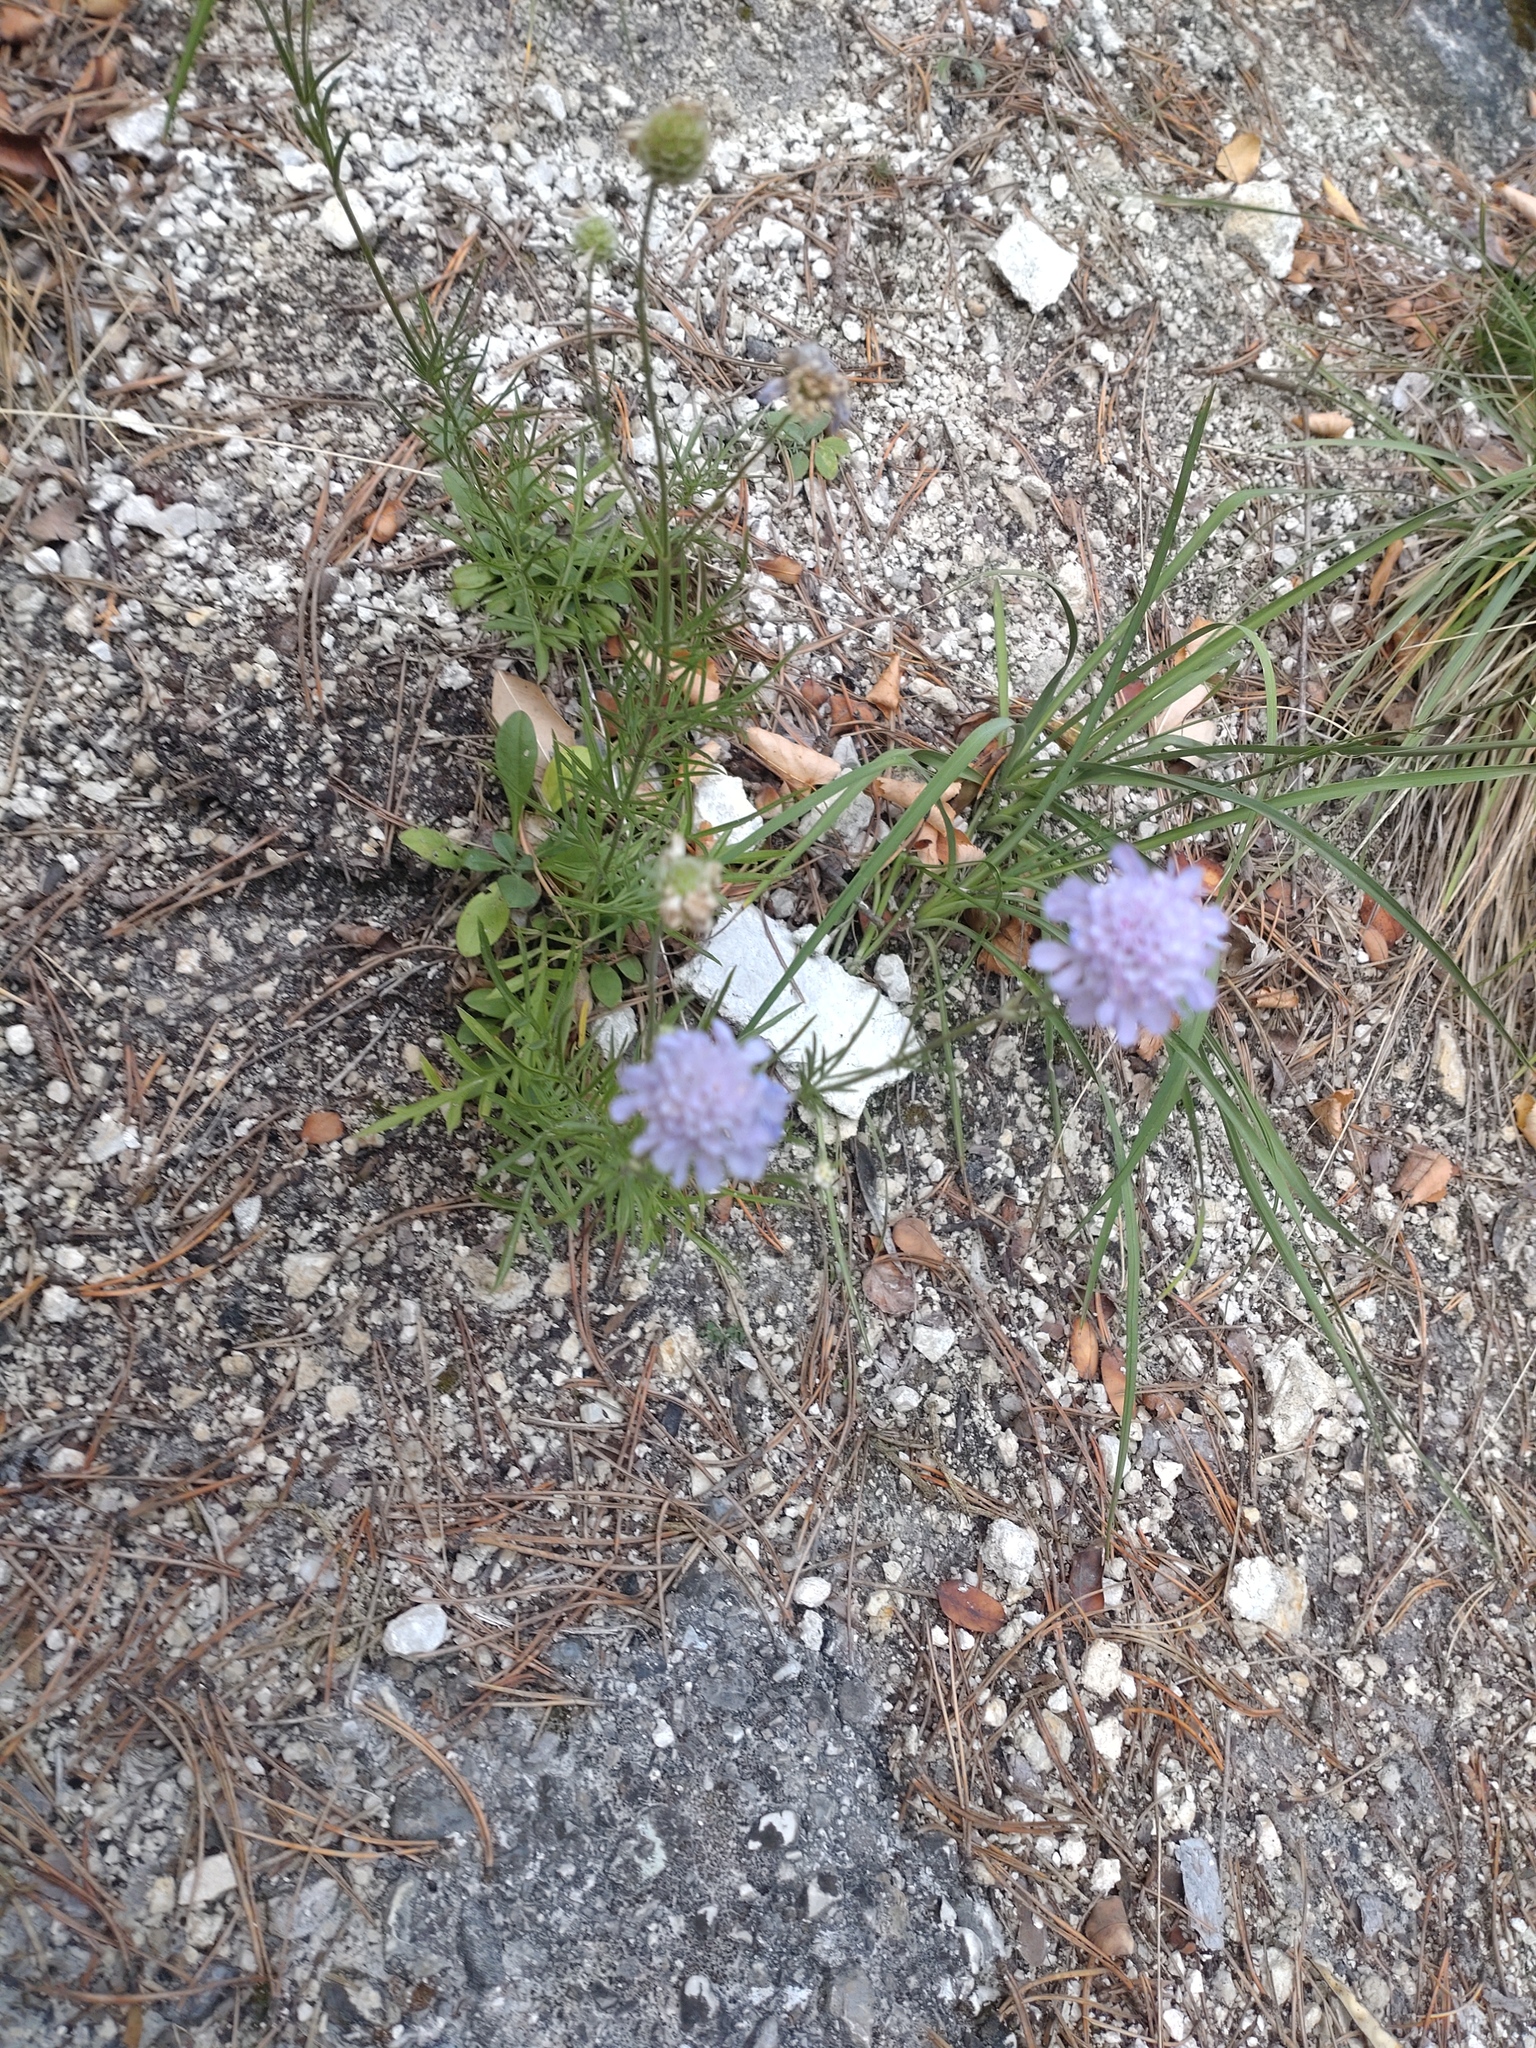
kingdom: Plantae
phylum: Tracheophyta
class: Magnoliopsida
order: Dipsacales
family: Caprifoliaceae
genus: Scabiosa
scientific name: Scabiosa canescens
